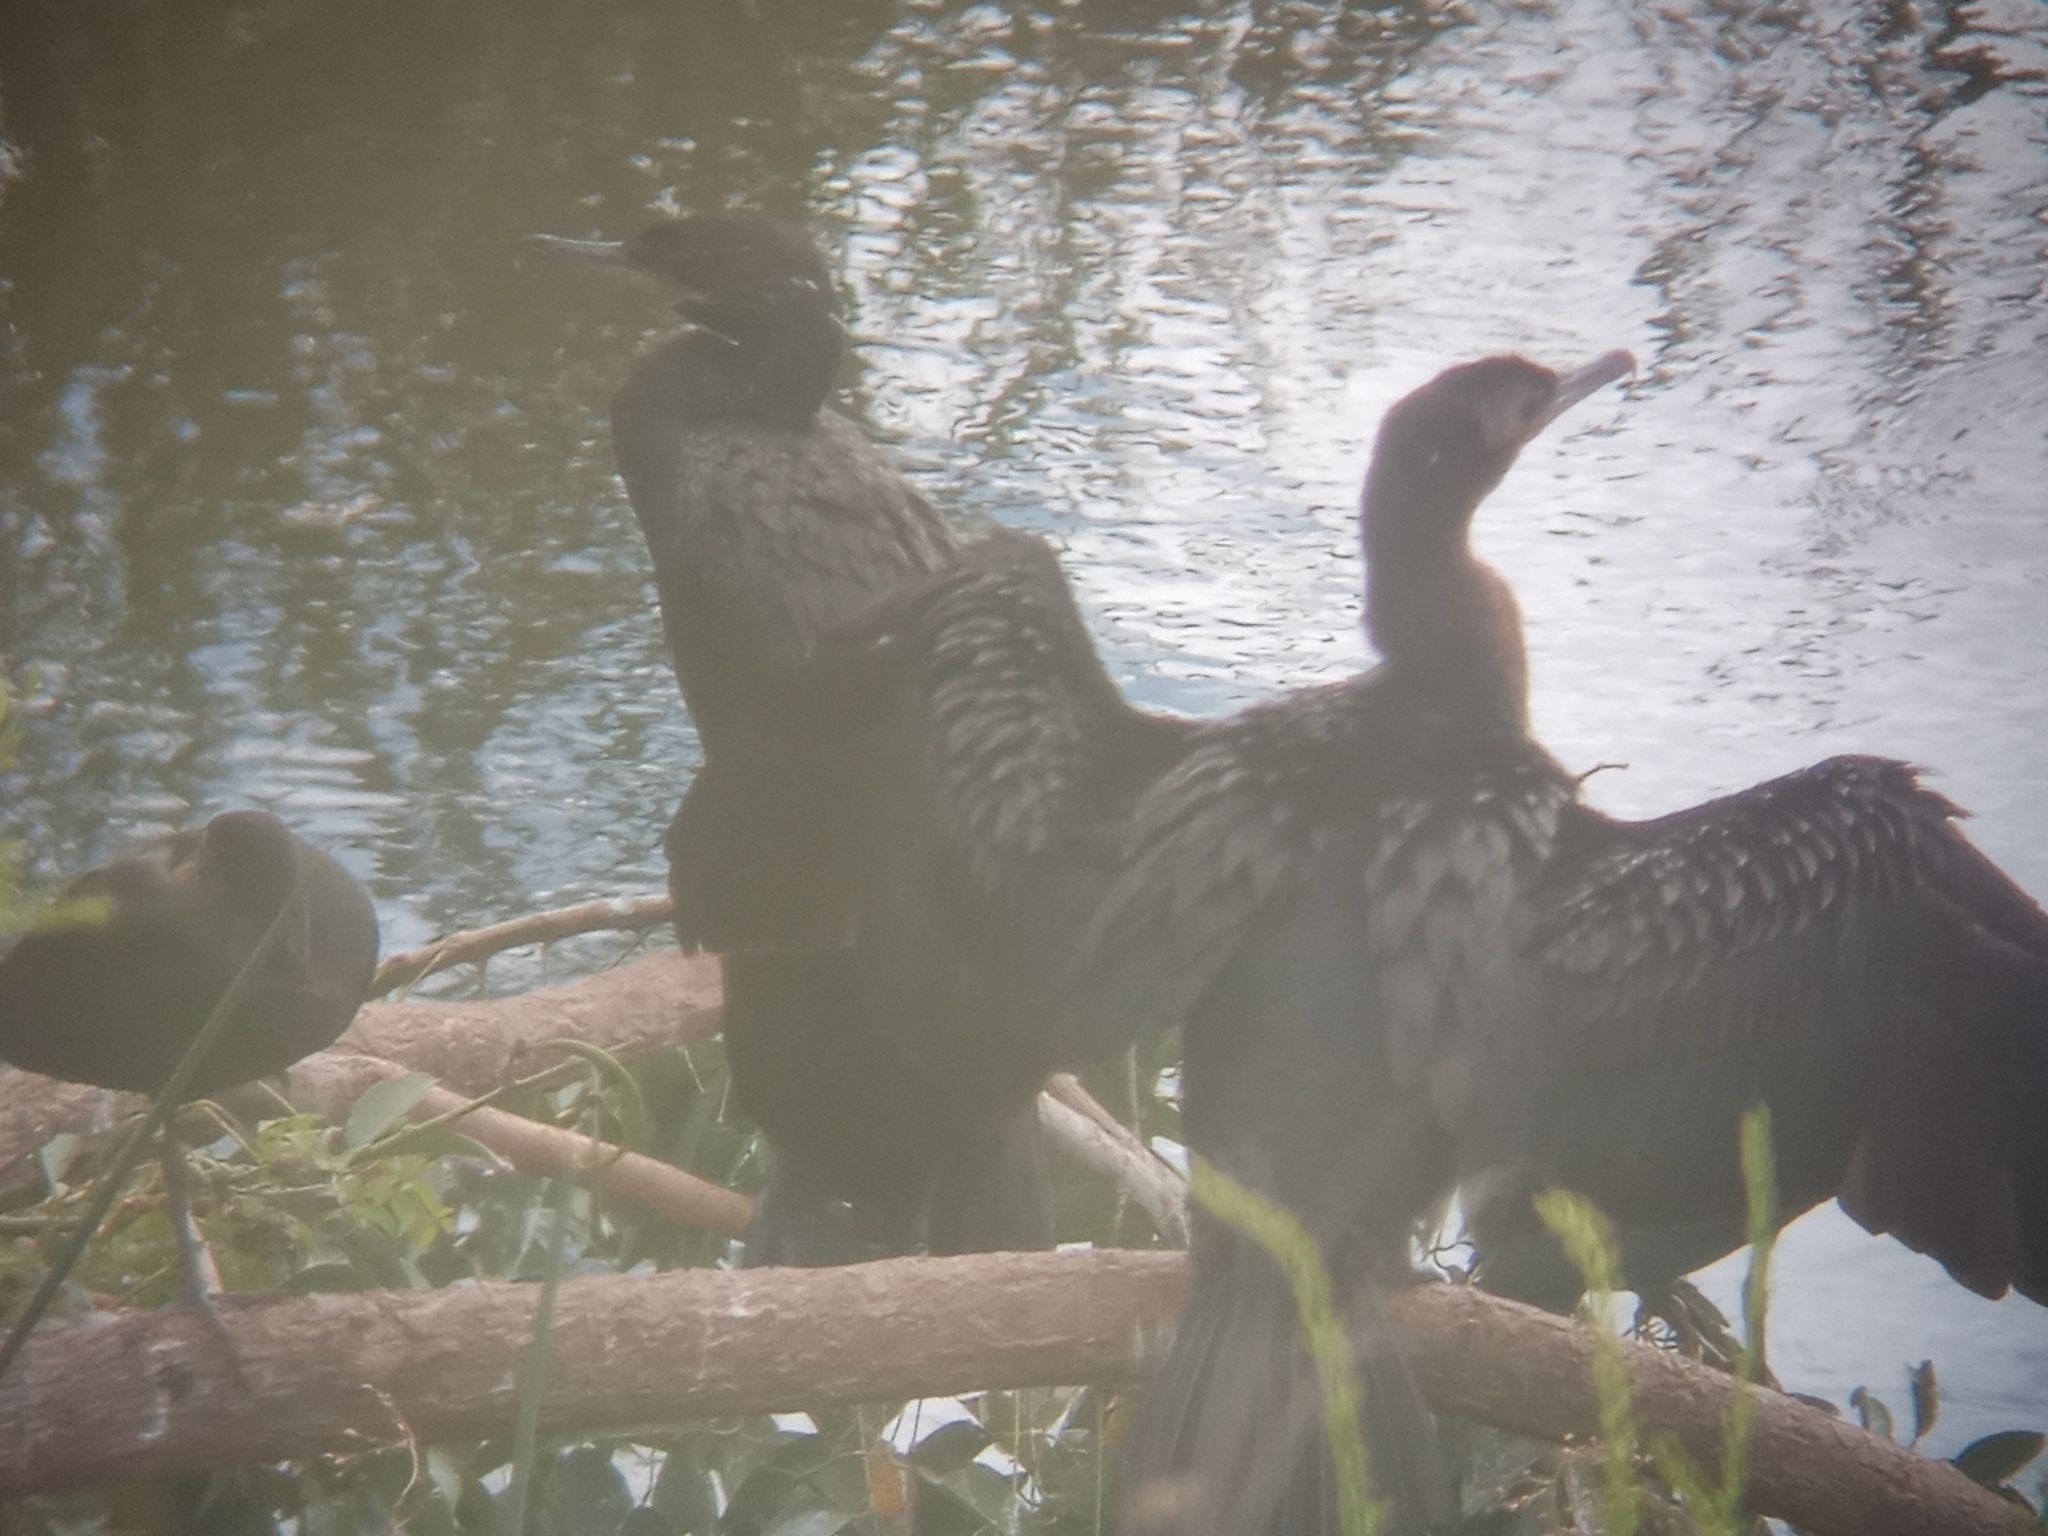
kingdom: Animalia
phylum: Chordata
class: Aves
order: Suliformes
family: Phalacrocoracidae
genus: Phalacrocorax
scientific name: Phalacrocorax brasilianus
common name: Neotropic cormorant
